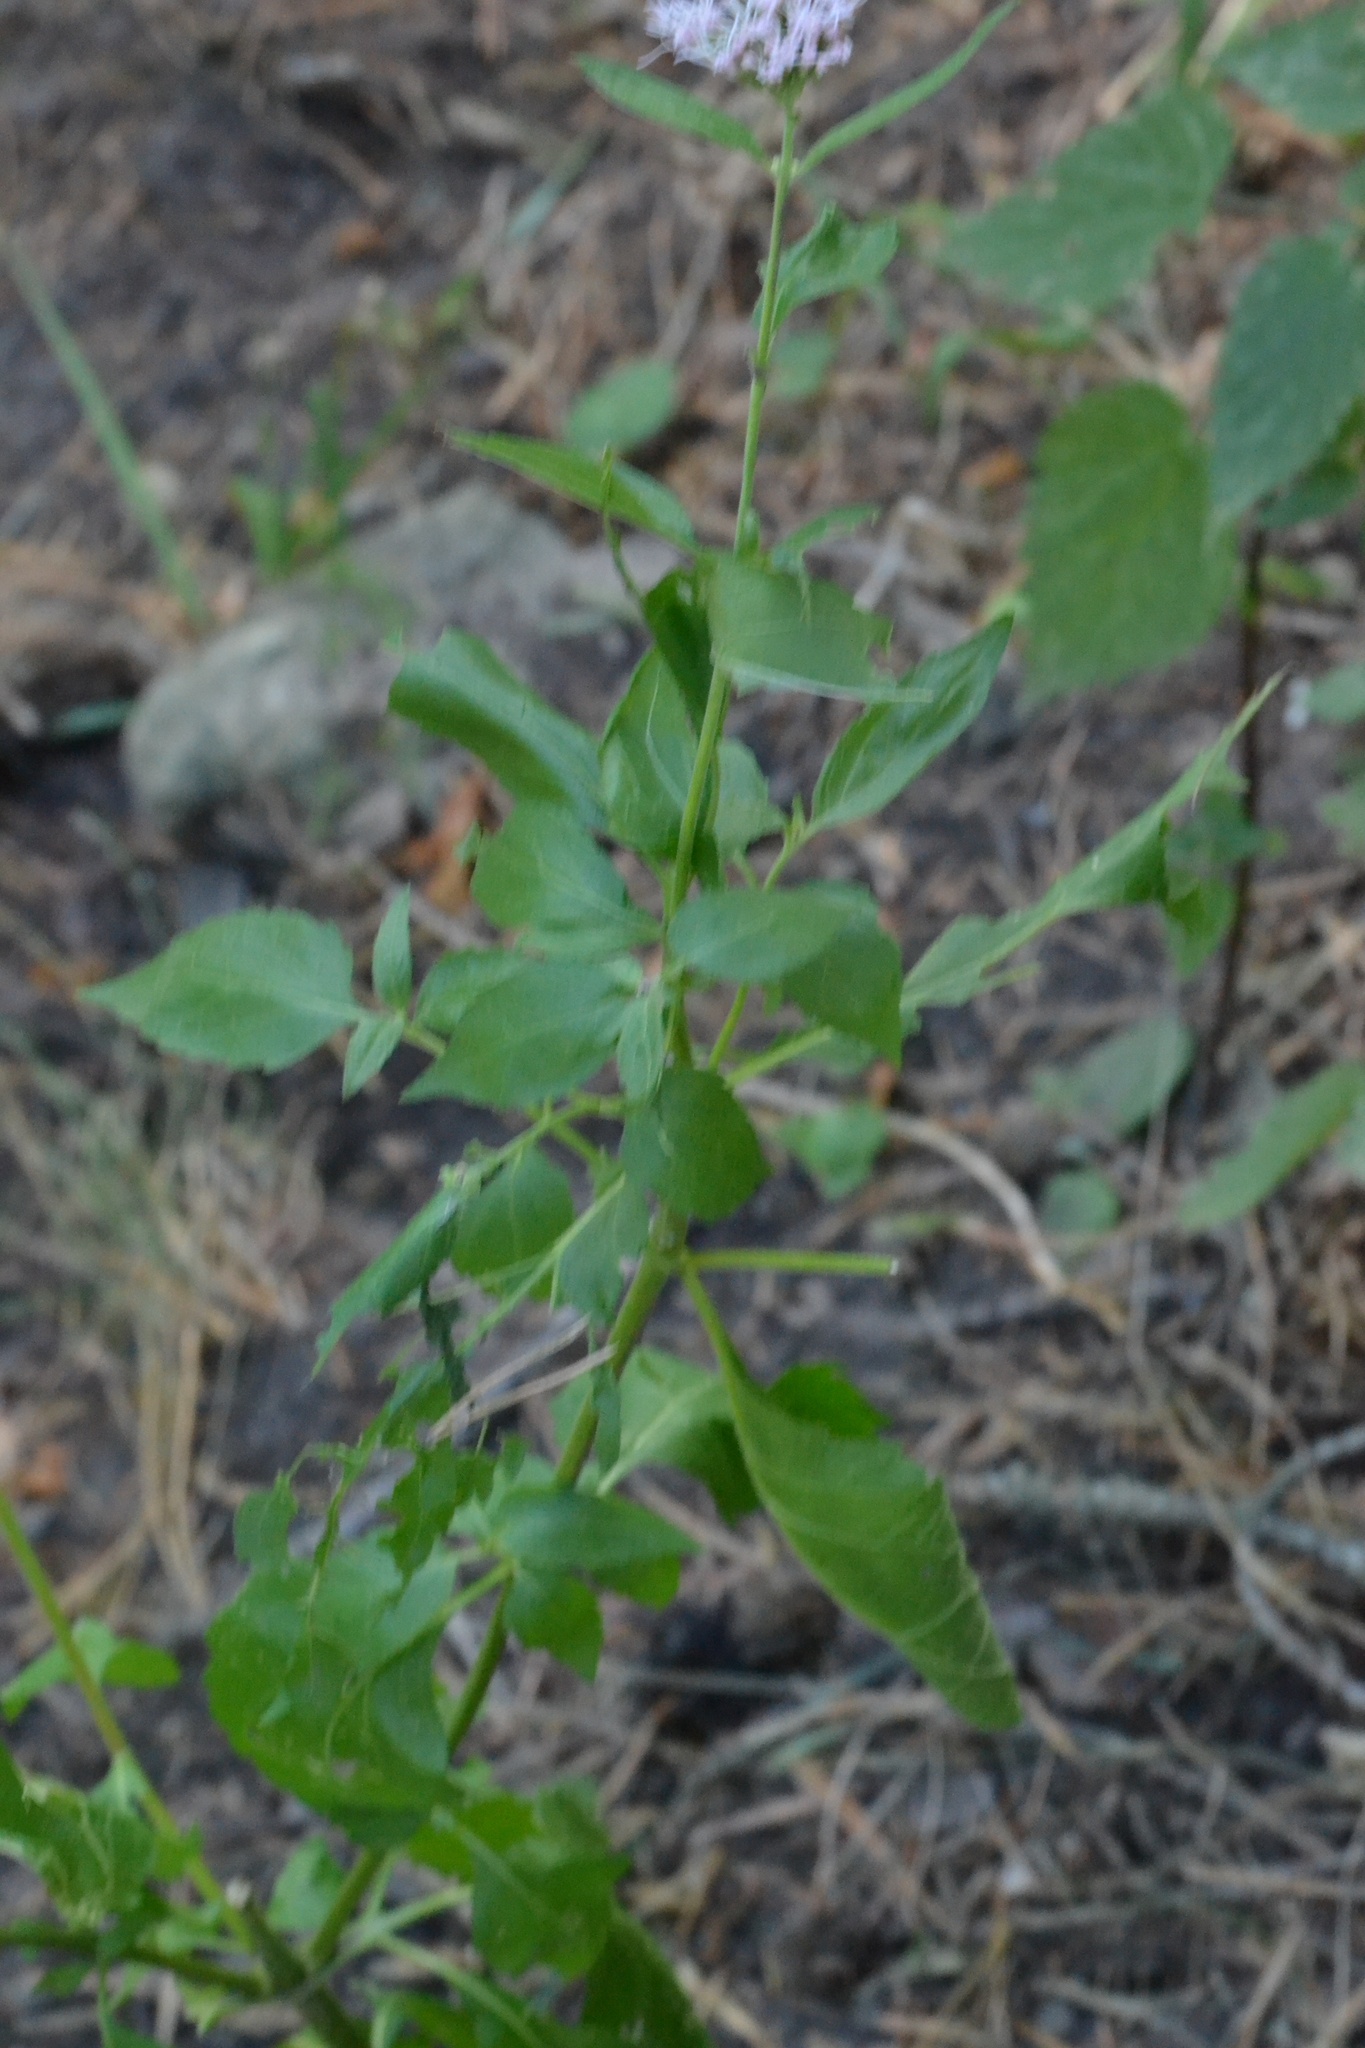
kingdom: Plantae
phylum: Tracheophyta
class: Magnoliopsida
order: Asterales
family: Asteraceae
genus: Eupatorium
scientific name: Eupatorium cannabinum
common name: Hemp-agrimony
